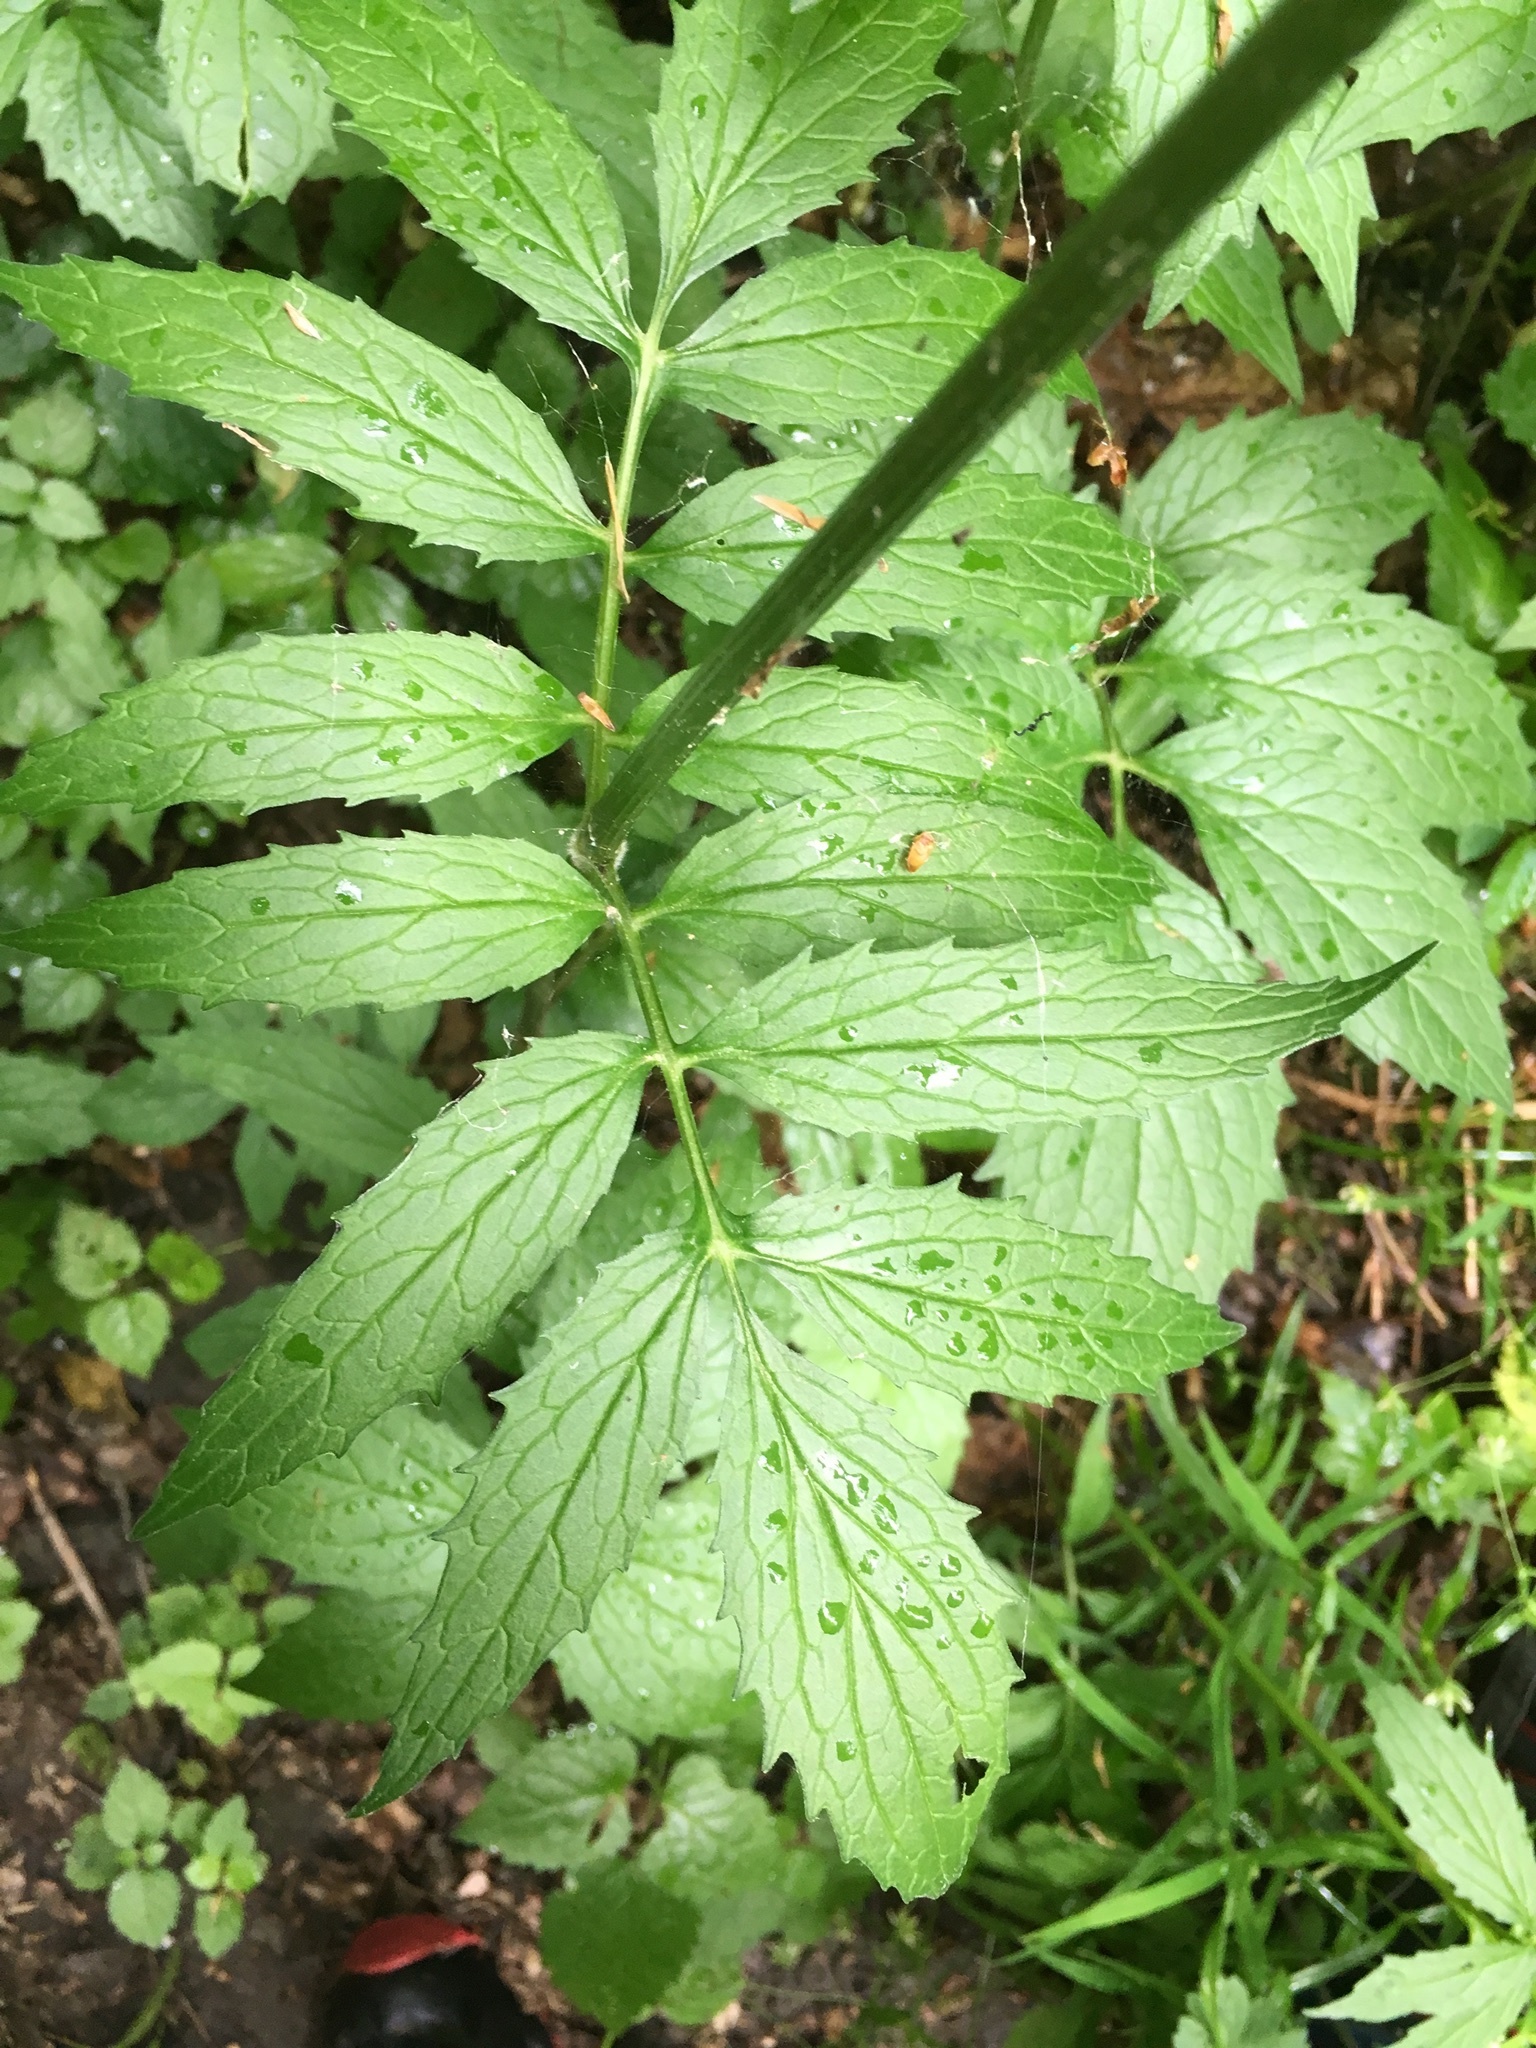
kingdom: Plantae
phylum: Tracheophyta
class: Magnoliopsida
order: Dipsacales
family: Caprifoliaceae
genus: Valeriana
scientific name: Valeriana excelsa
